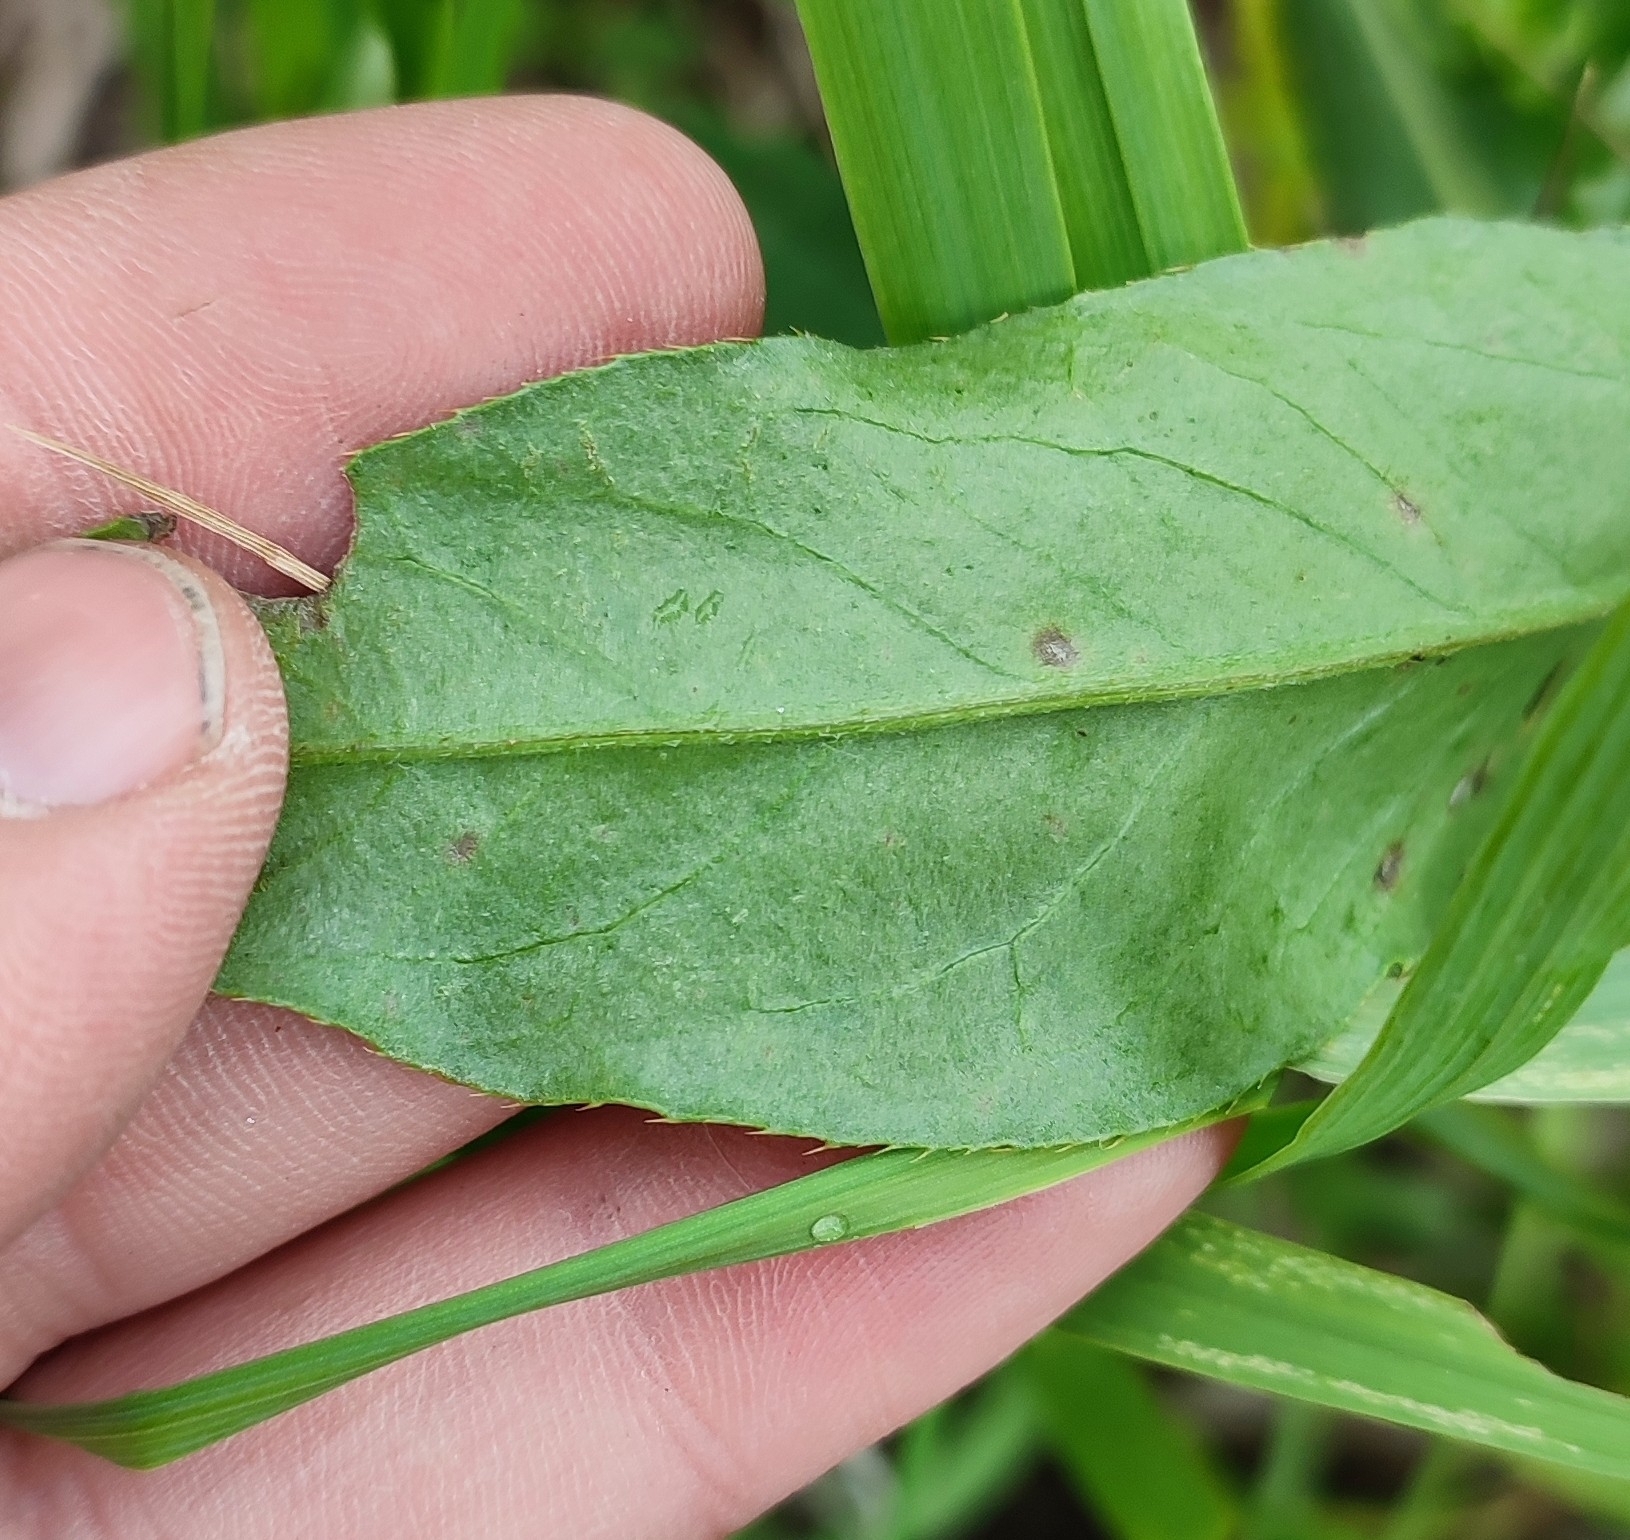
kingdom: Plantae
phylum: Tracheophyta
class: Magnoliopsida
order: Asterales
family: Asteraceae
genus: Cirsium
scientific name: Cirsium arvense
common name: Creeping thistle
